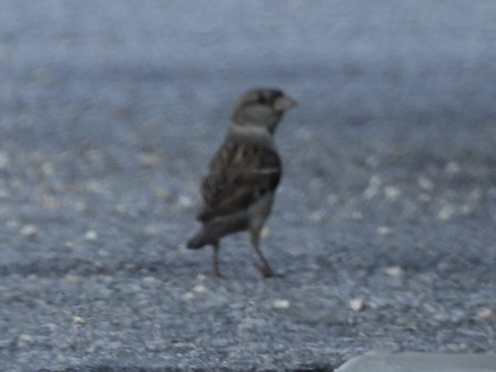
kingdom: Animalia
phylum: Chordata
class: Aves
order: Passeriformes
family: Passeridae
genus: Passer
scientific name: Passer domesticus
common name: House sparrow
